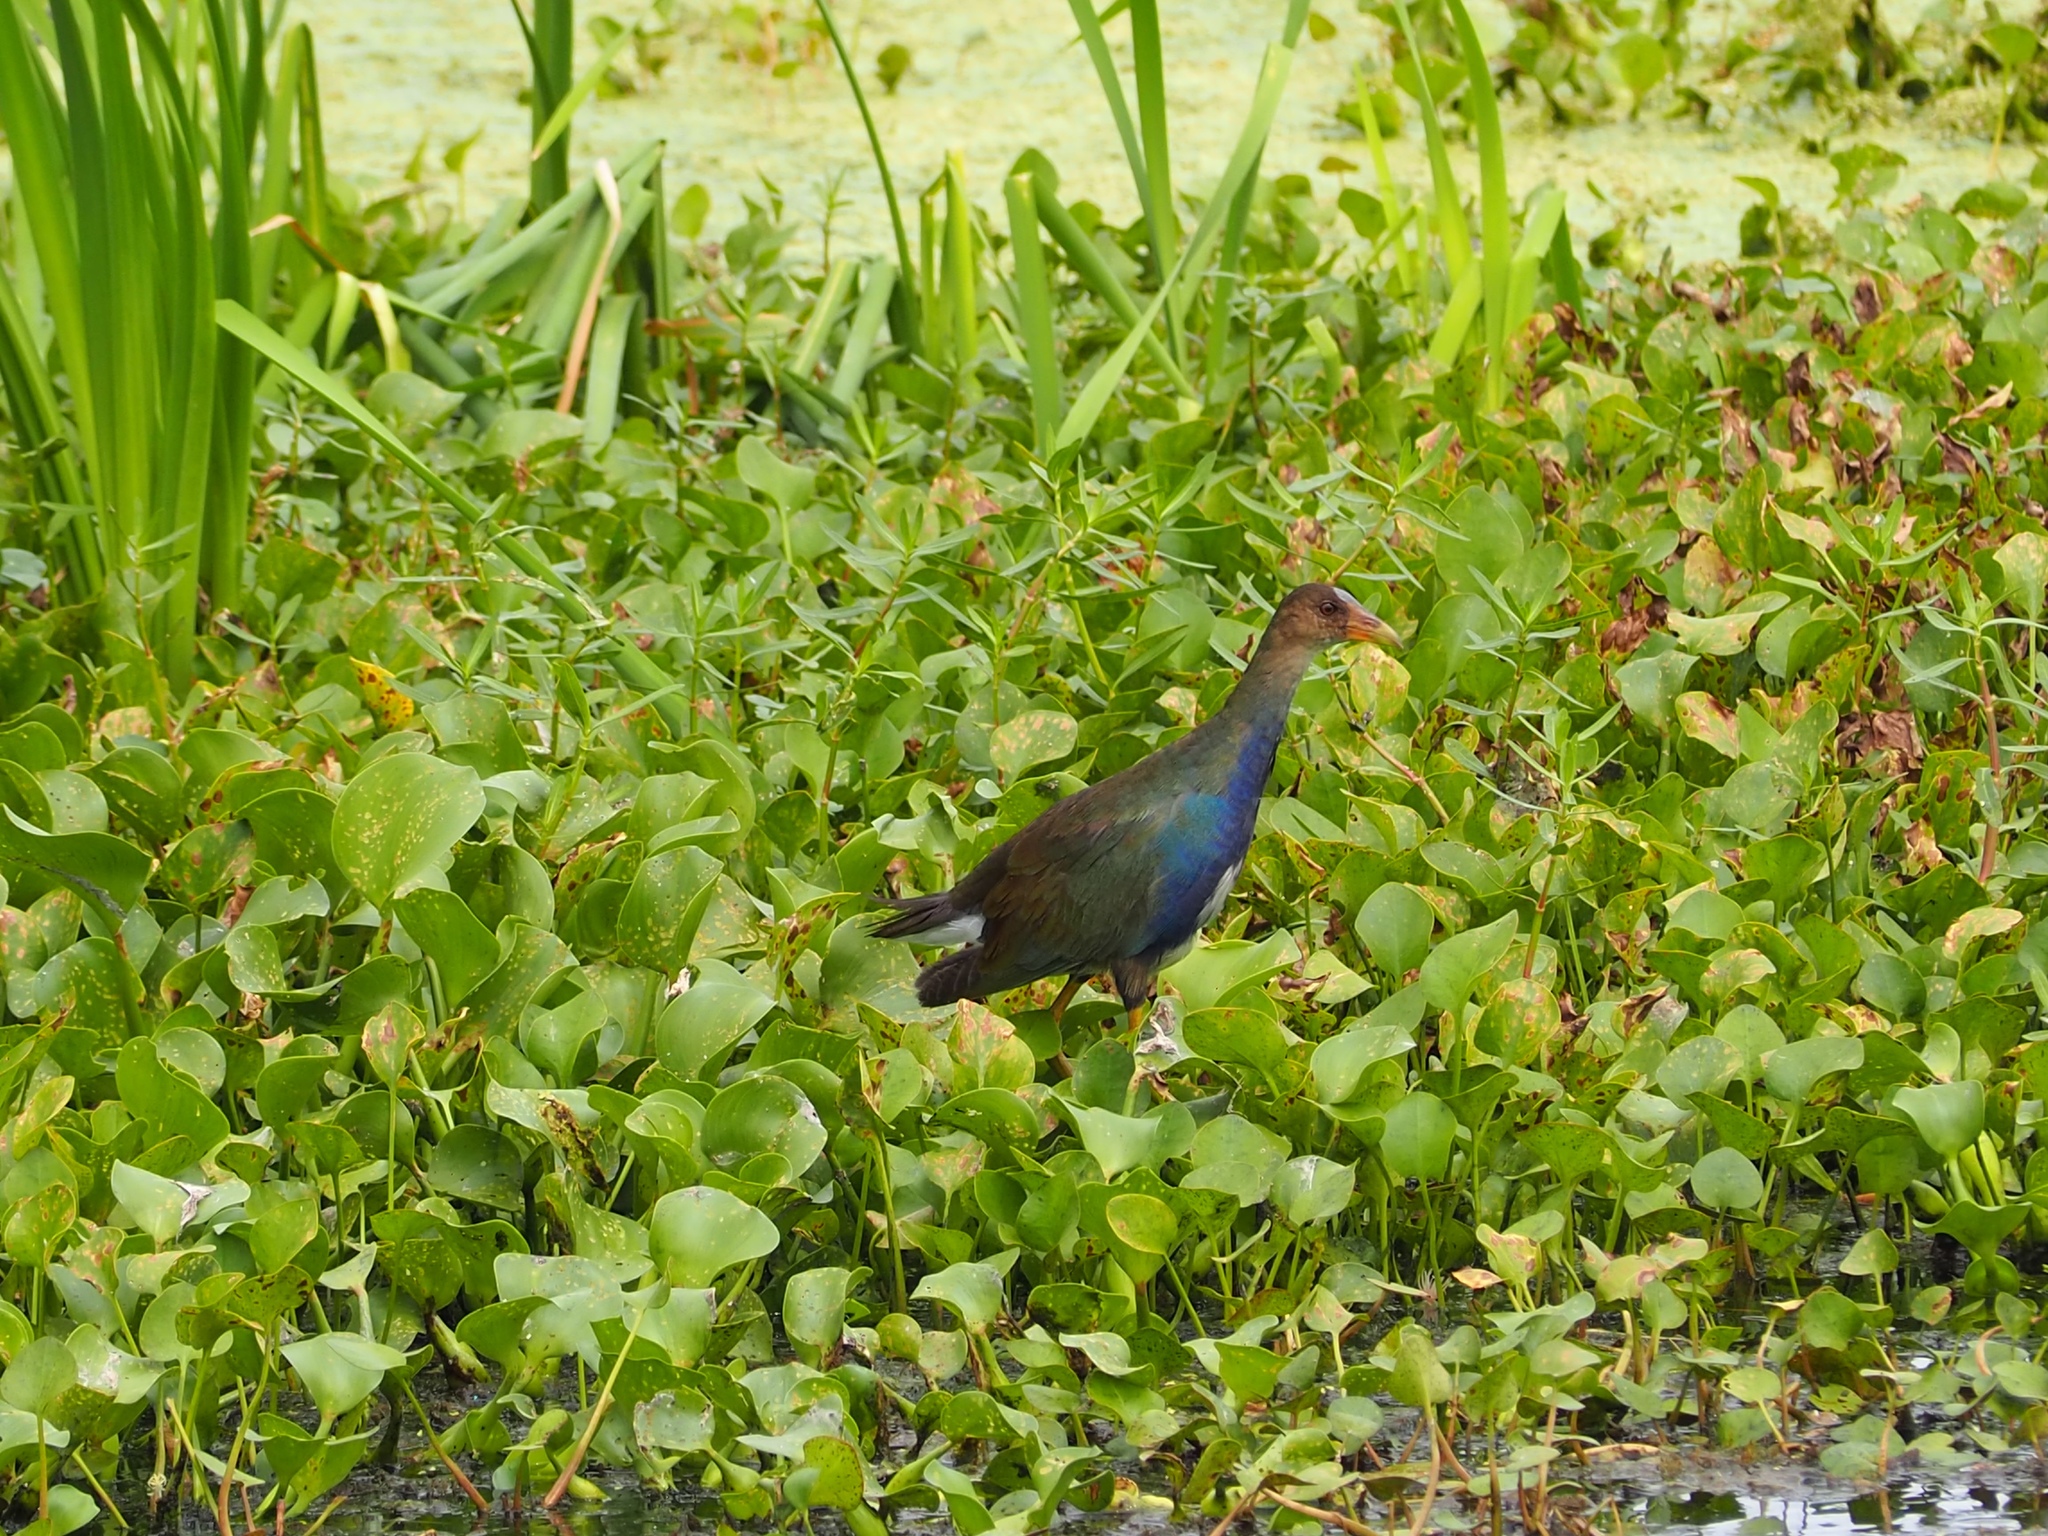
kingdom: Animalia
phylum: Chordata
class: Aves
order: Gruiformes
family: Rallidae
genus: Porphyrio
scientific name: Porphyrio martinica
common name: Purple gallinule
